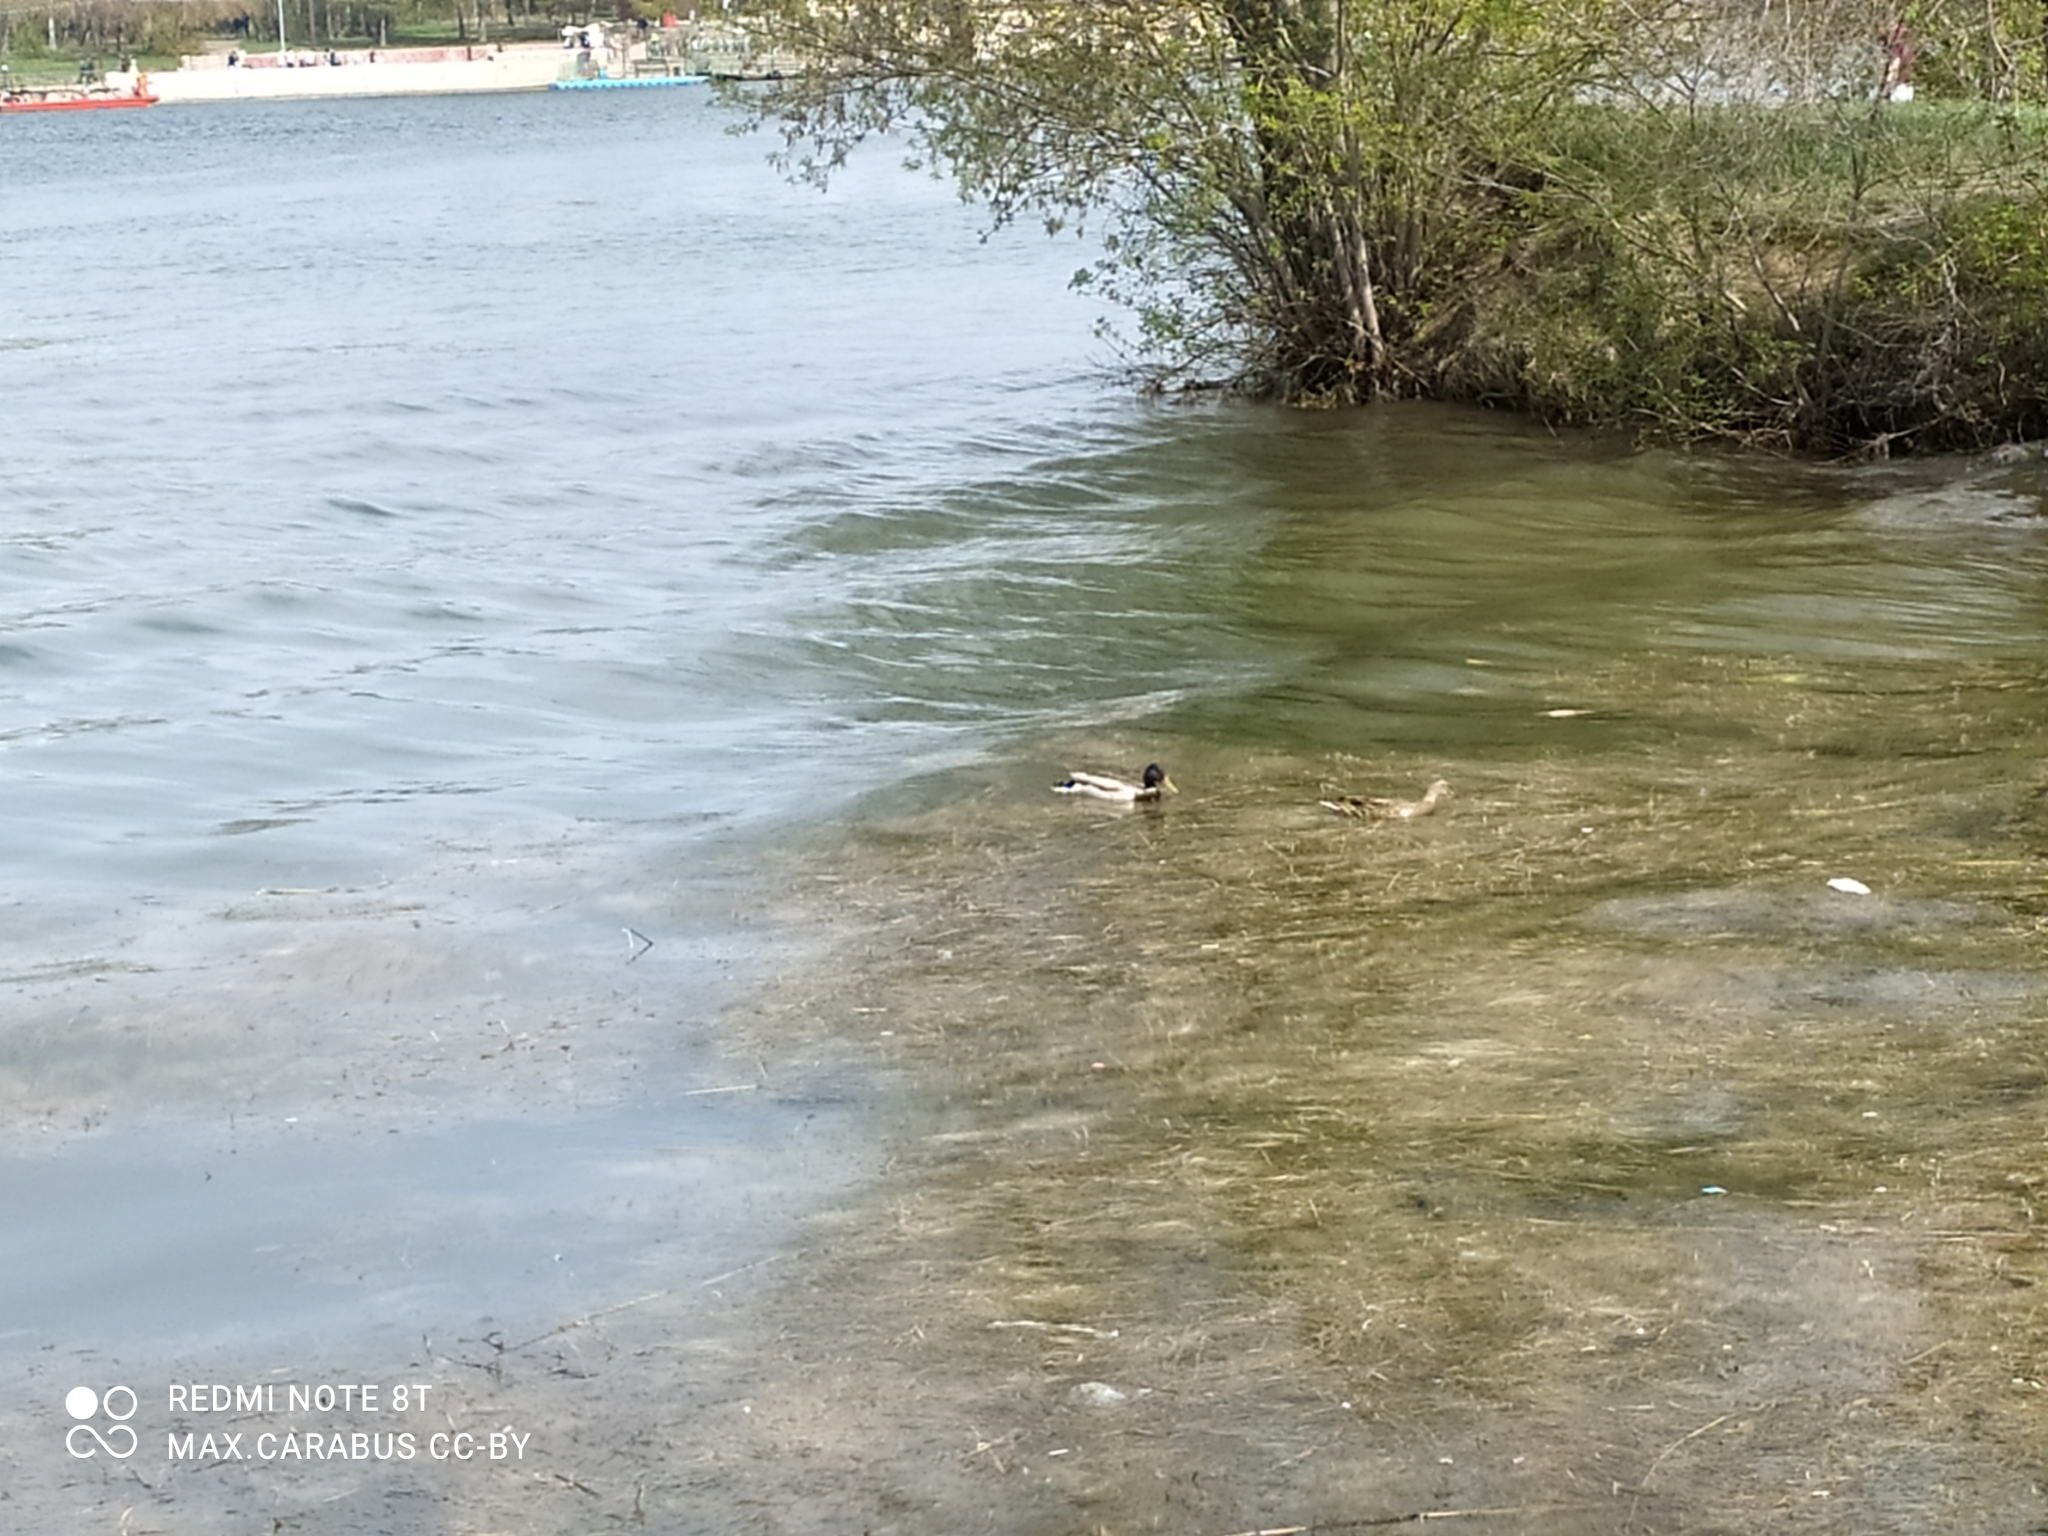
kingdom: Animalia
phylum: Chordata
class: Aves
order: Anseriformes
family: Anatidae
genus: Anas
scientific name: Anas platyrhynchos
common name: Mallard
